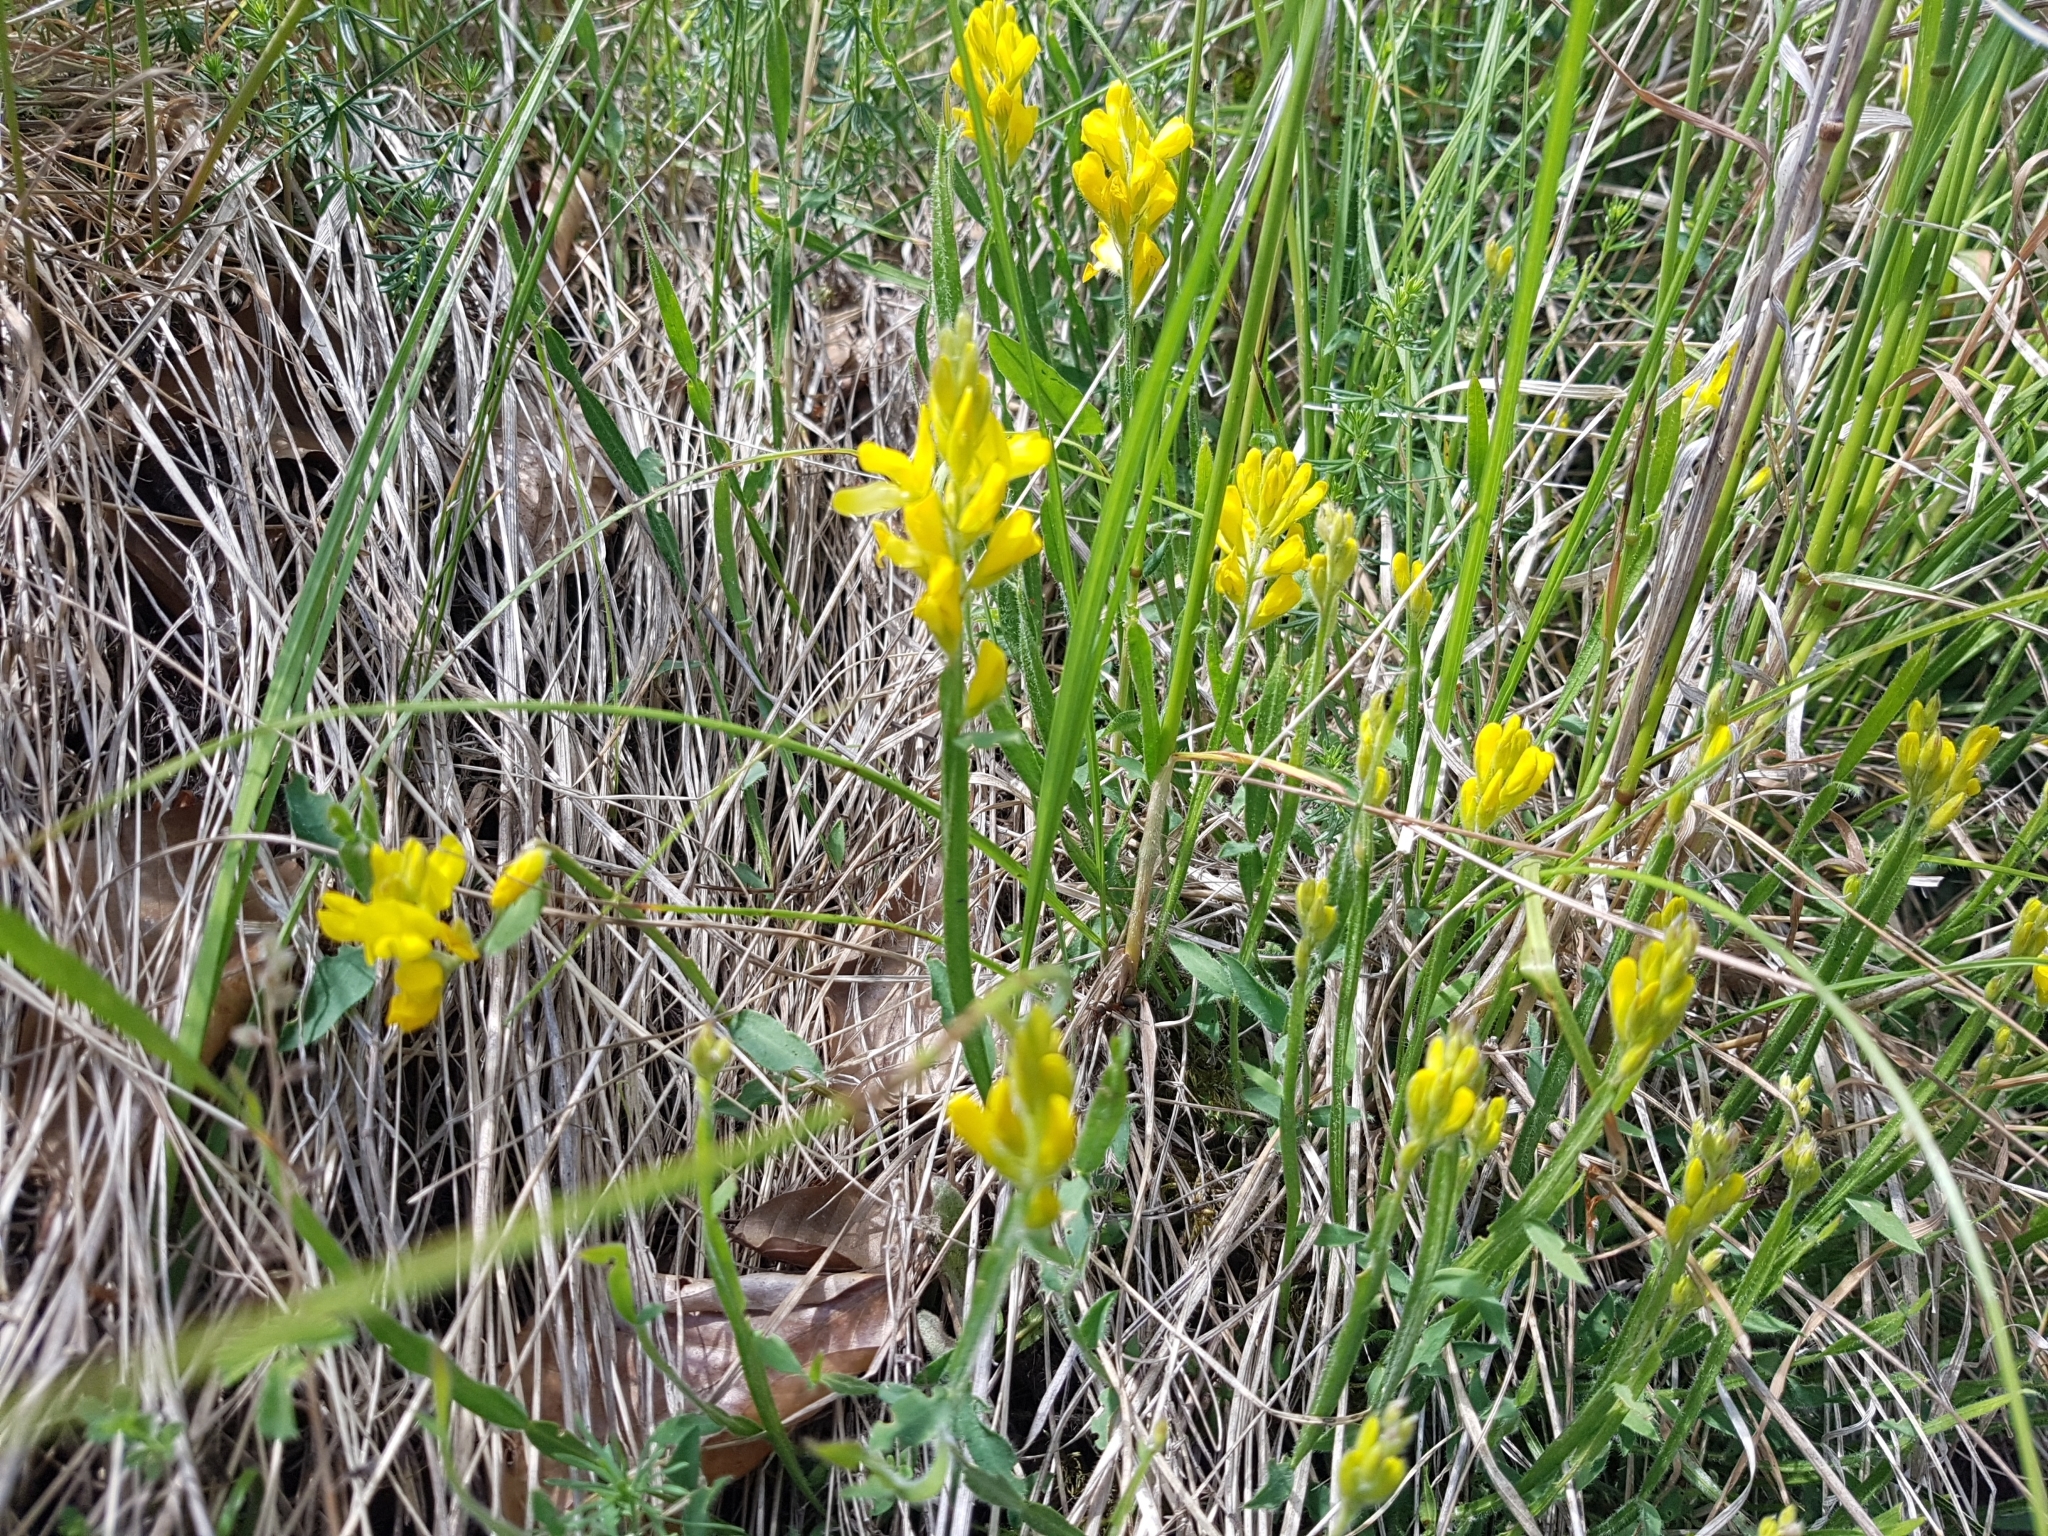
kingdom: Plantae
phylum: Tracheophyta
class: Magnoliopsida
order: Fabales
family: Fabaceae
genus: Genista
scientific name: Genista sagittalis
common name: Winged greenweed
